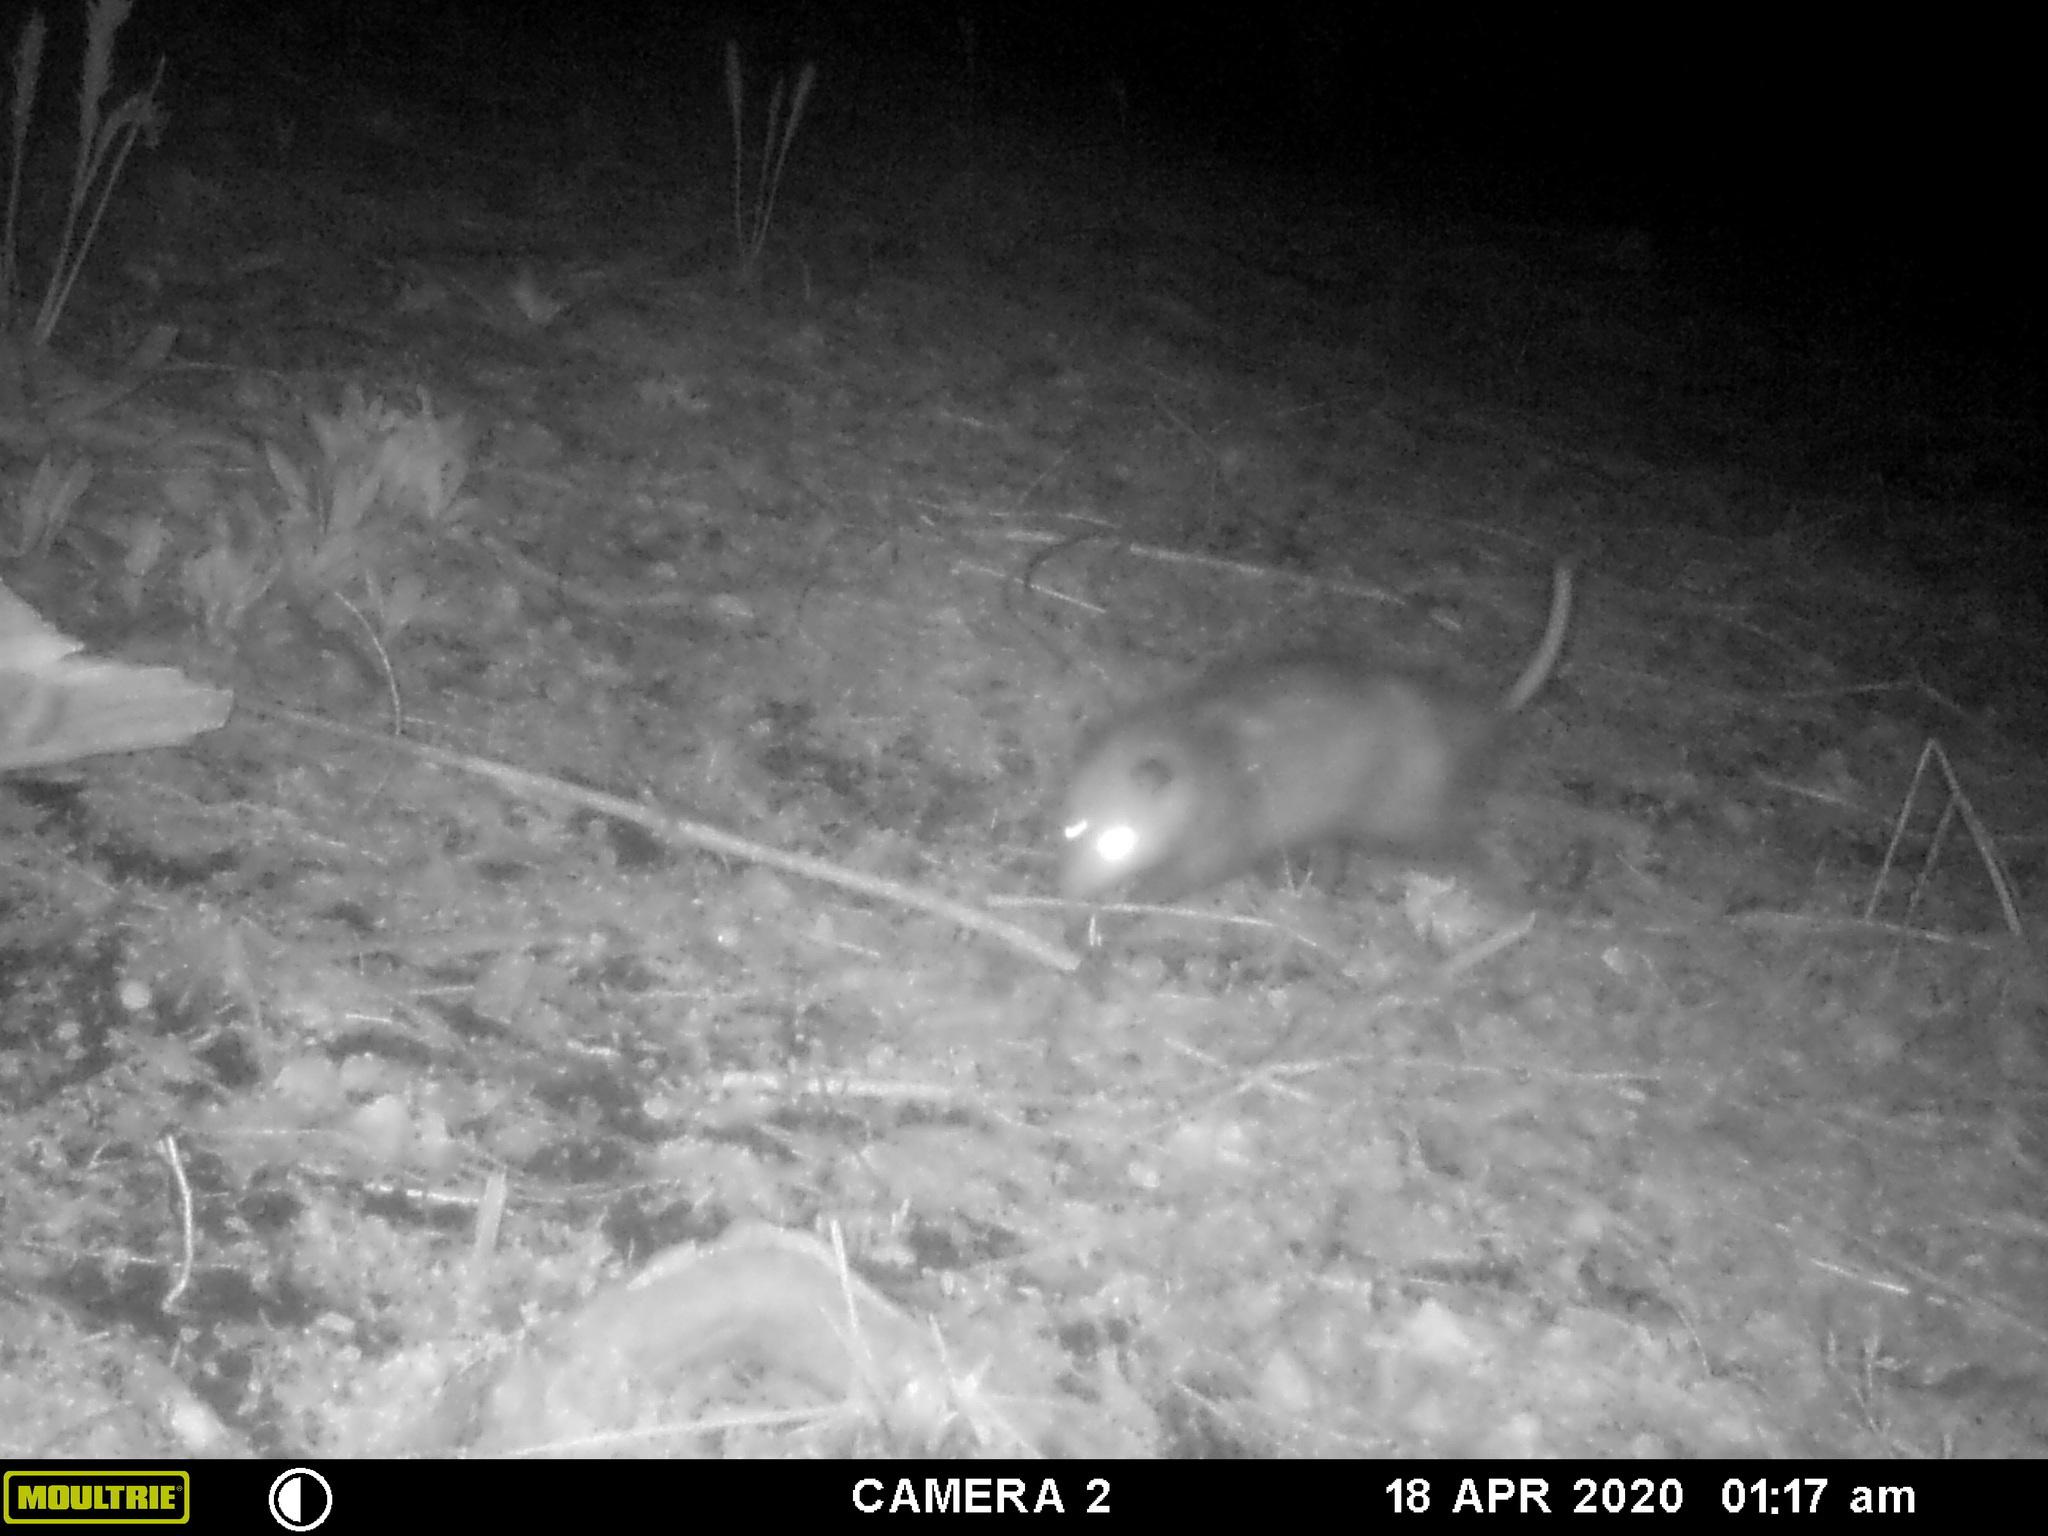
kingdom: Animalia
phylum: Chordata
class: Mammalia
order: Didelphimorphia
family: Didelphidae
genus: Didelphis
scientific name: Didelphis virginiana
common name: Virginia opossum
